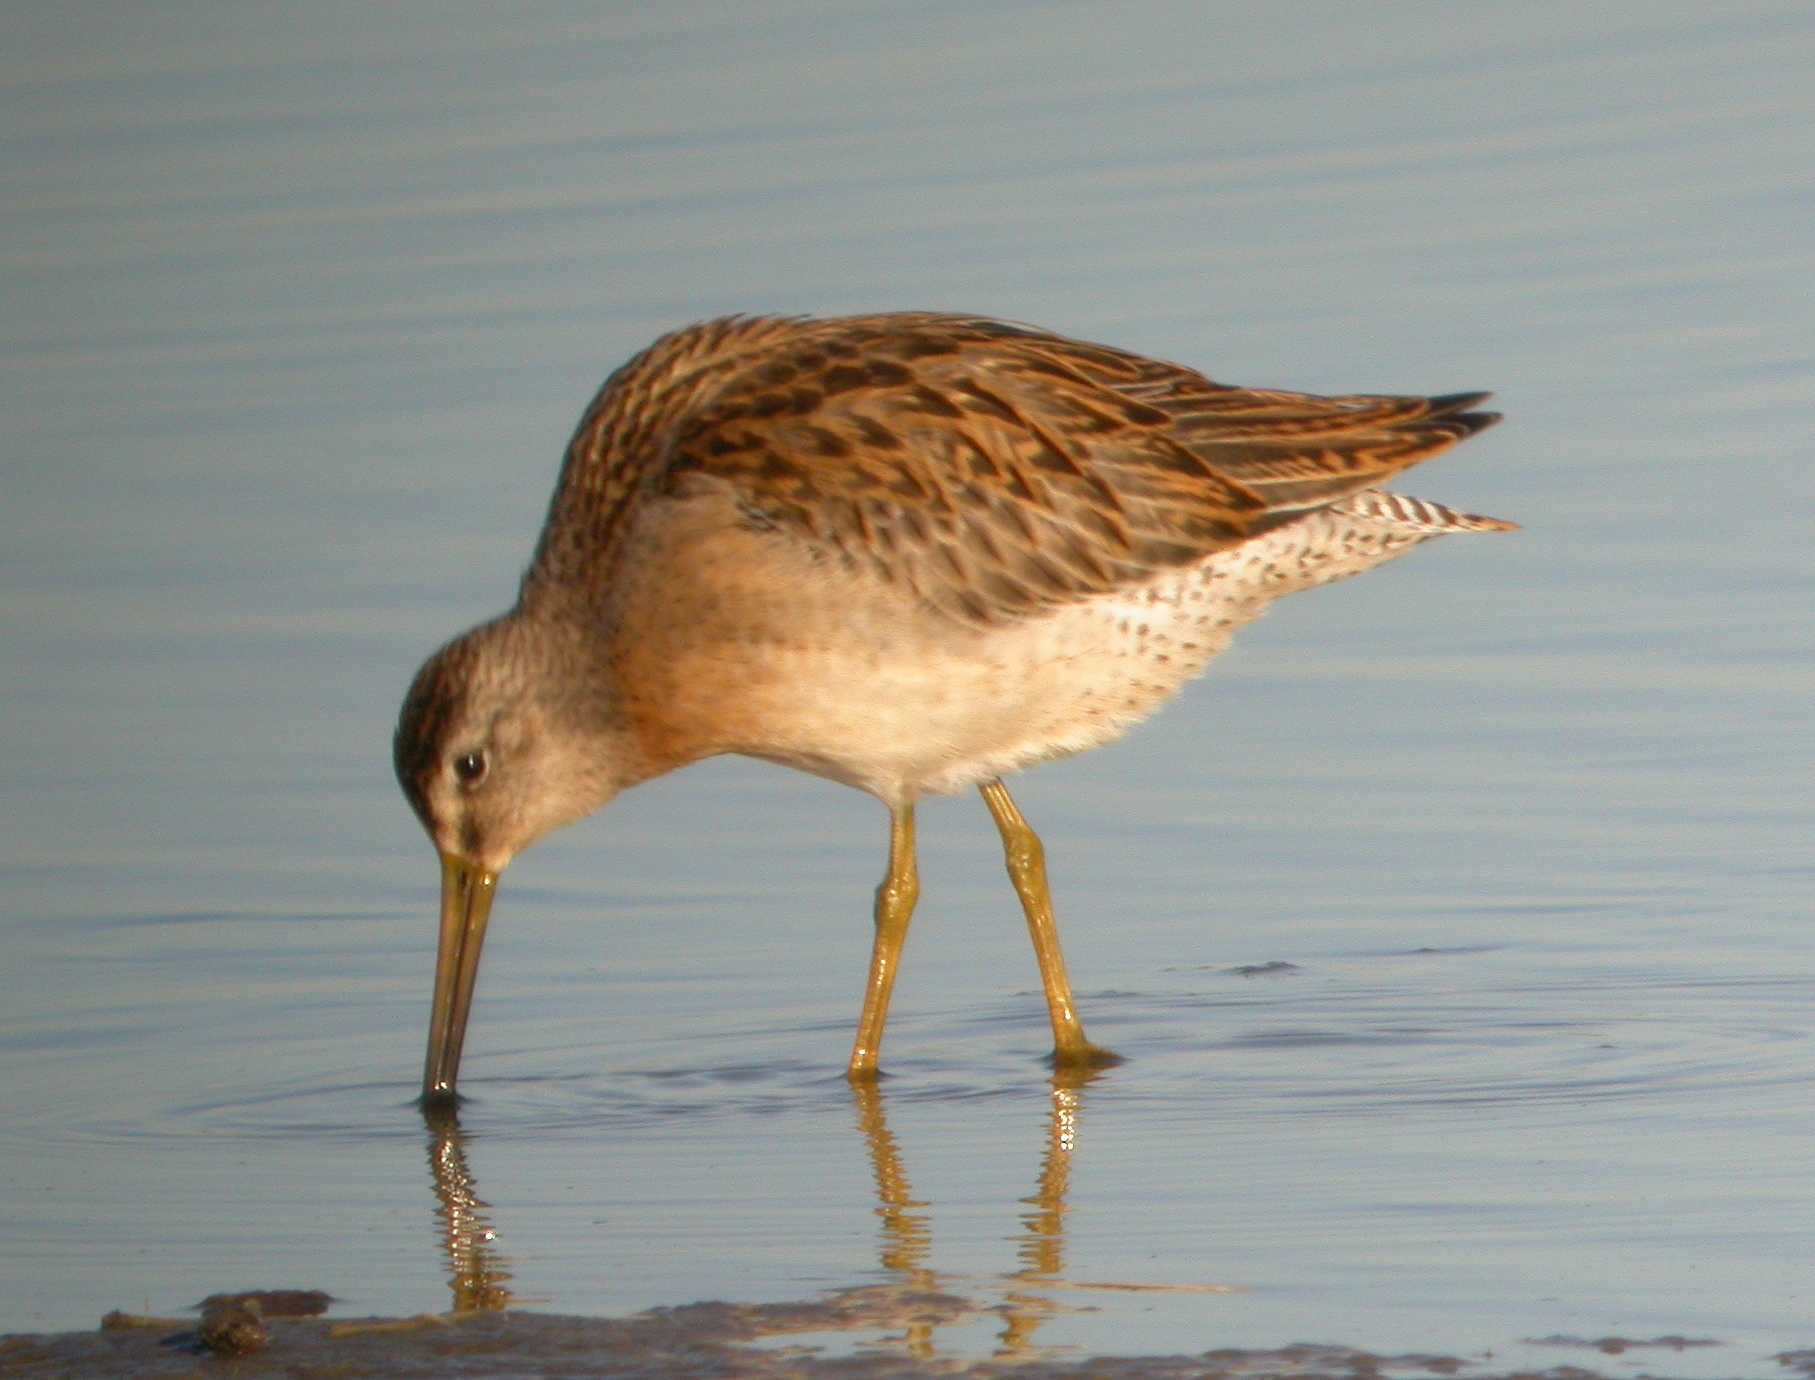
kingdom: Animalia
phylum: Chordata
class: Aves
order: Charadriiformes
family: Scolopacidae
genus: Limnodromus
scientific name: Limnodromus griseus
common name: Short-billed dowitcher
